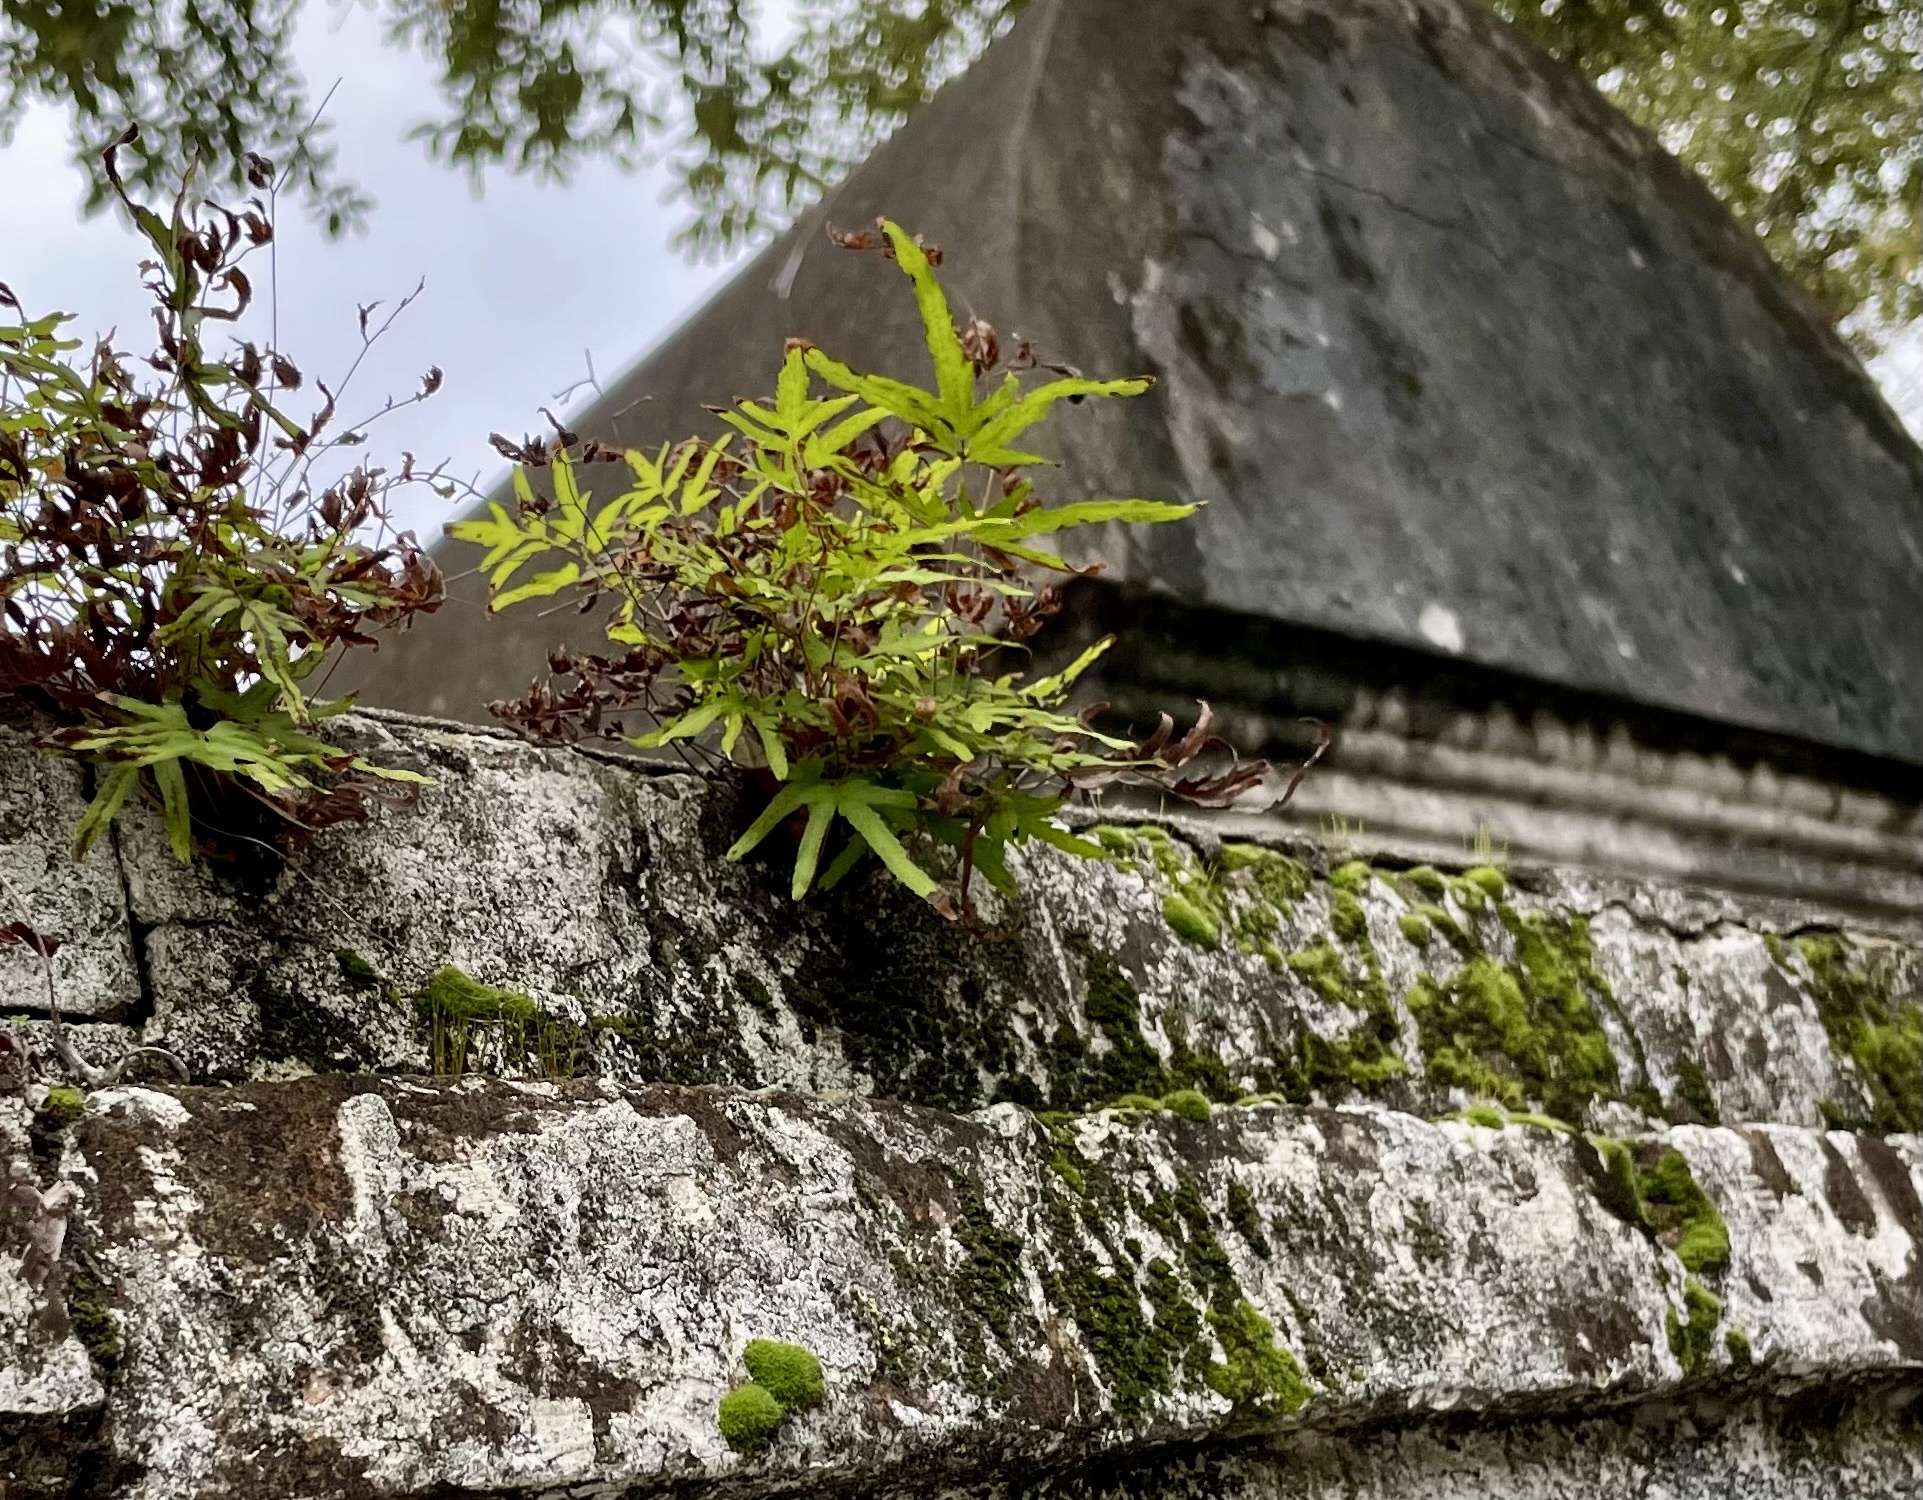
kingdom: Plantae
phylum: Tracheophyta
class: Polypodiopsida
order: Schizaeales
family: Lygodiaceae
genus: Lygodium
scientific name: Lygodium japonicum
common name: Japanese climbing fern
